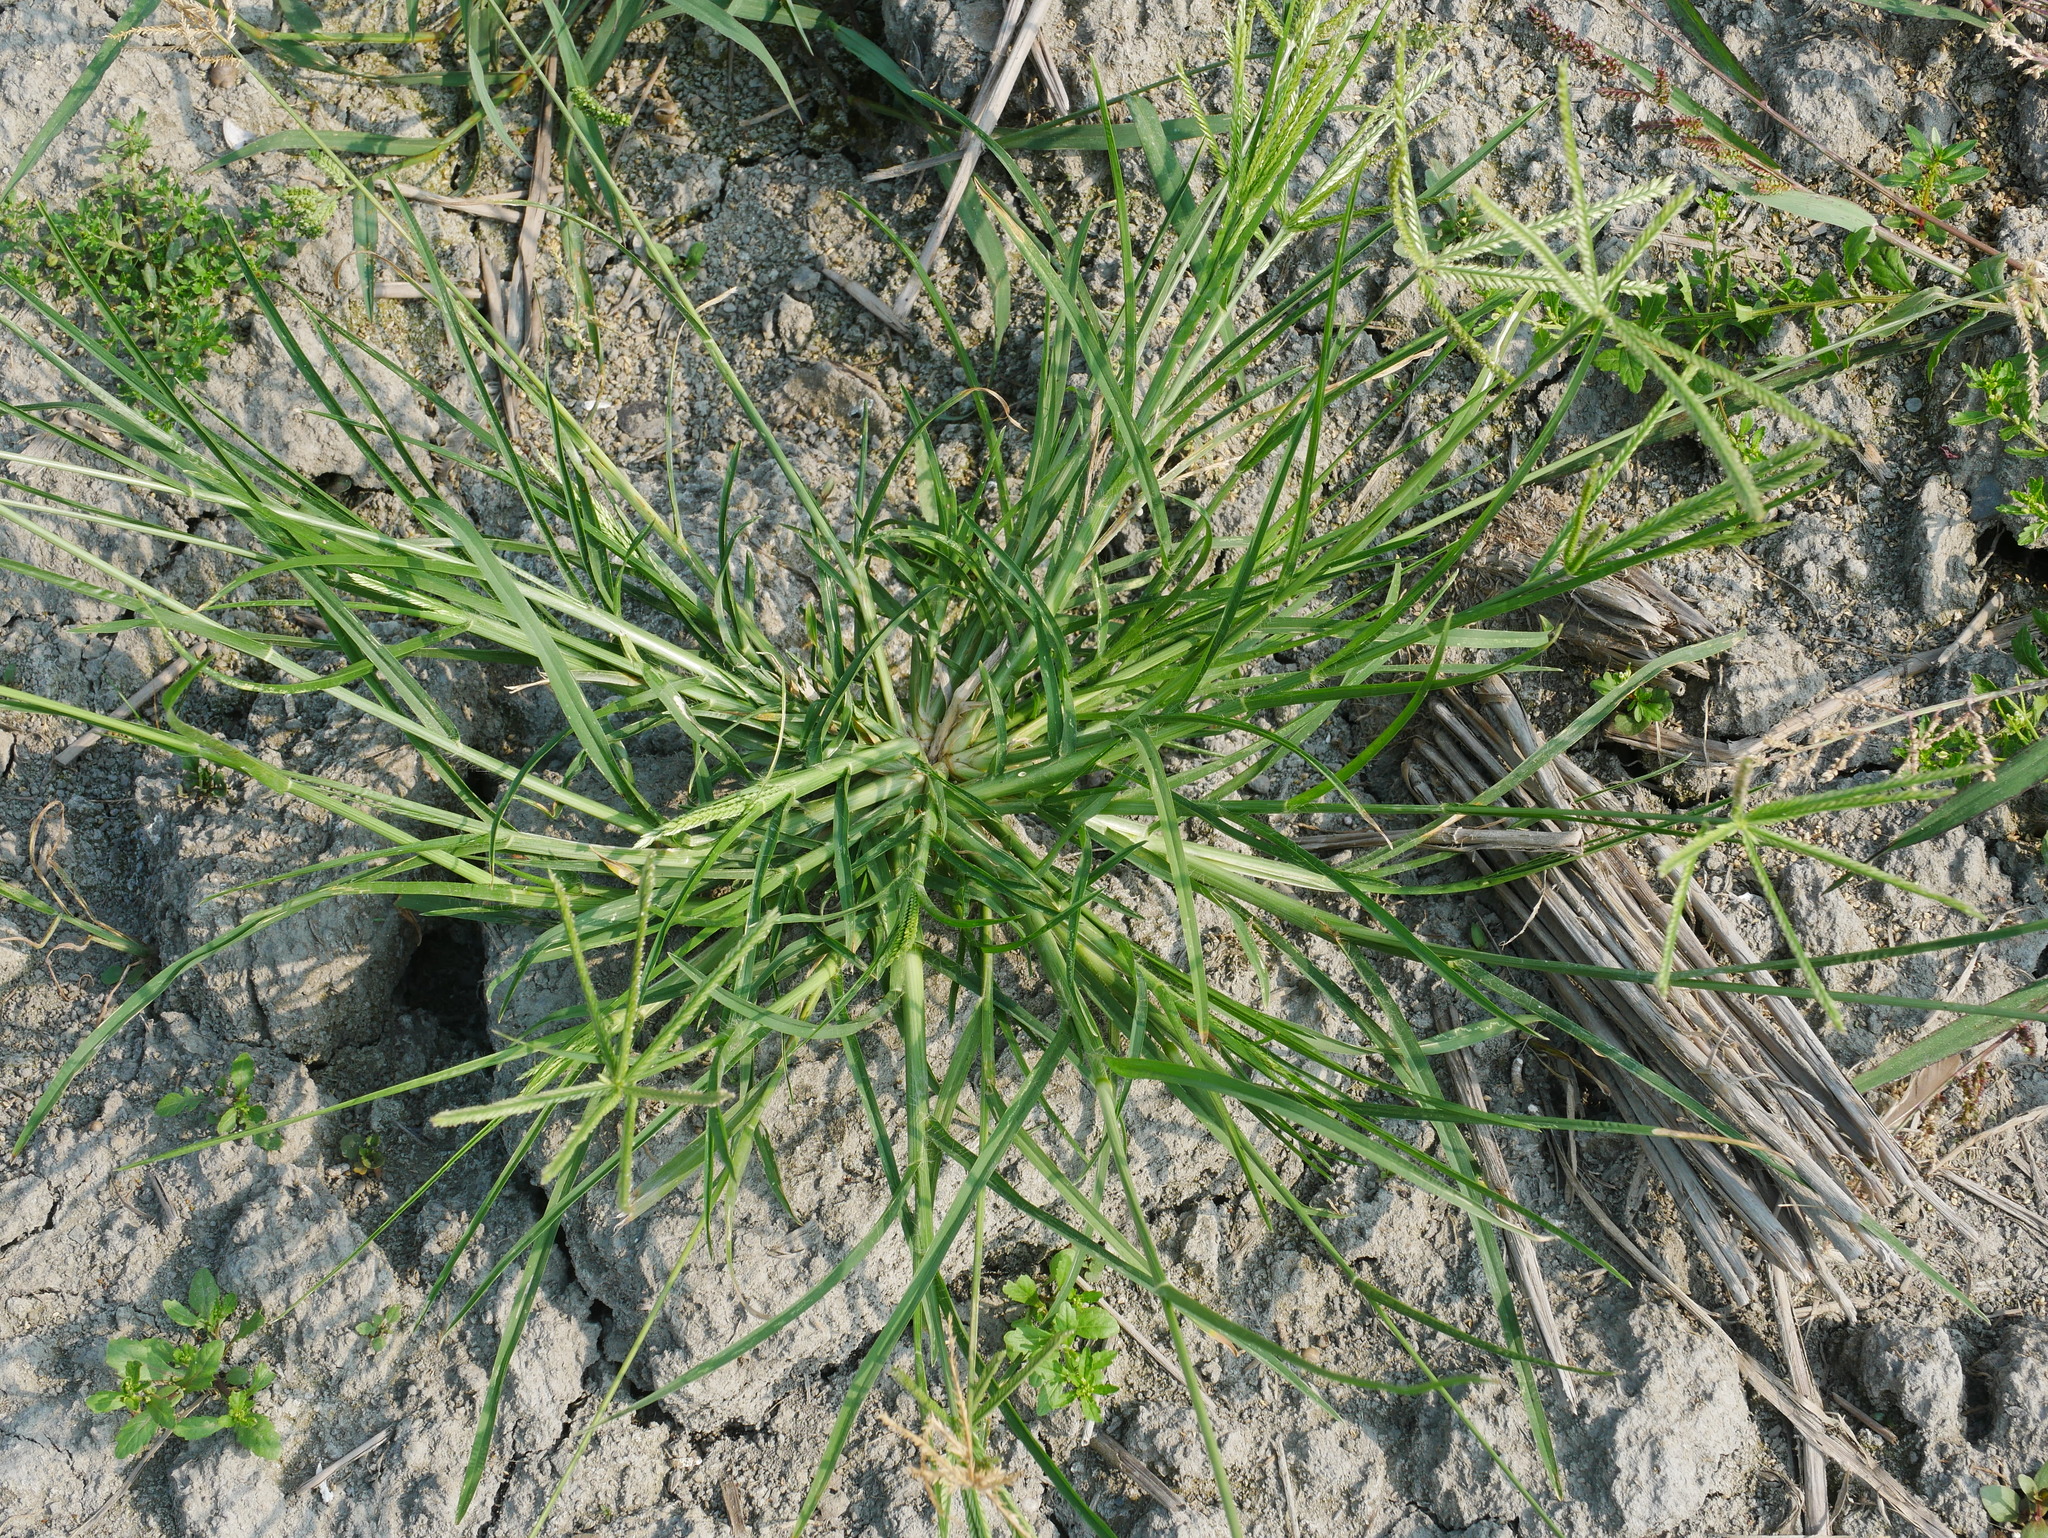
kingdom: Plantae
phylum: Tracheophyta
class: Liliopsida
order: Poales
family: Poaceae
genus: Eleusine
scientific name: Eleusine indica
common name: Yard-grass
